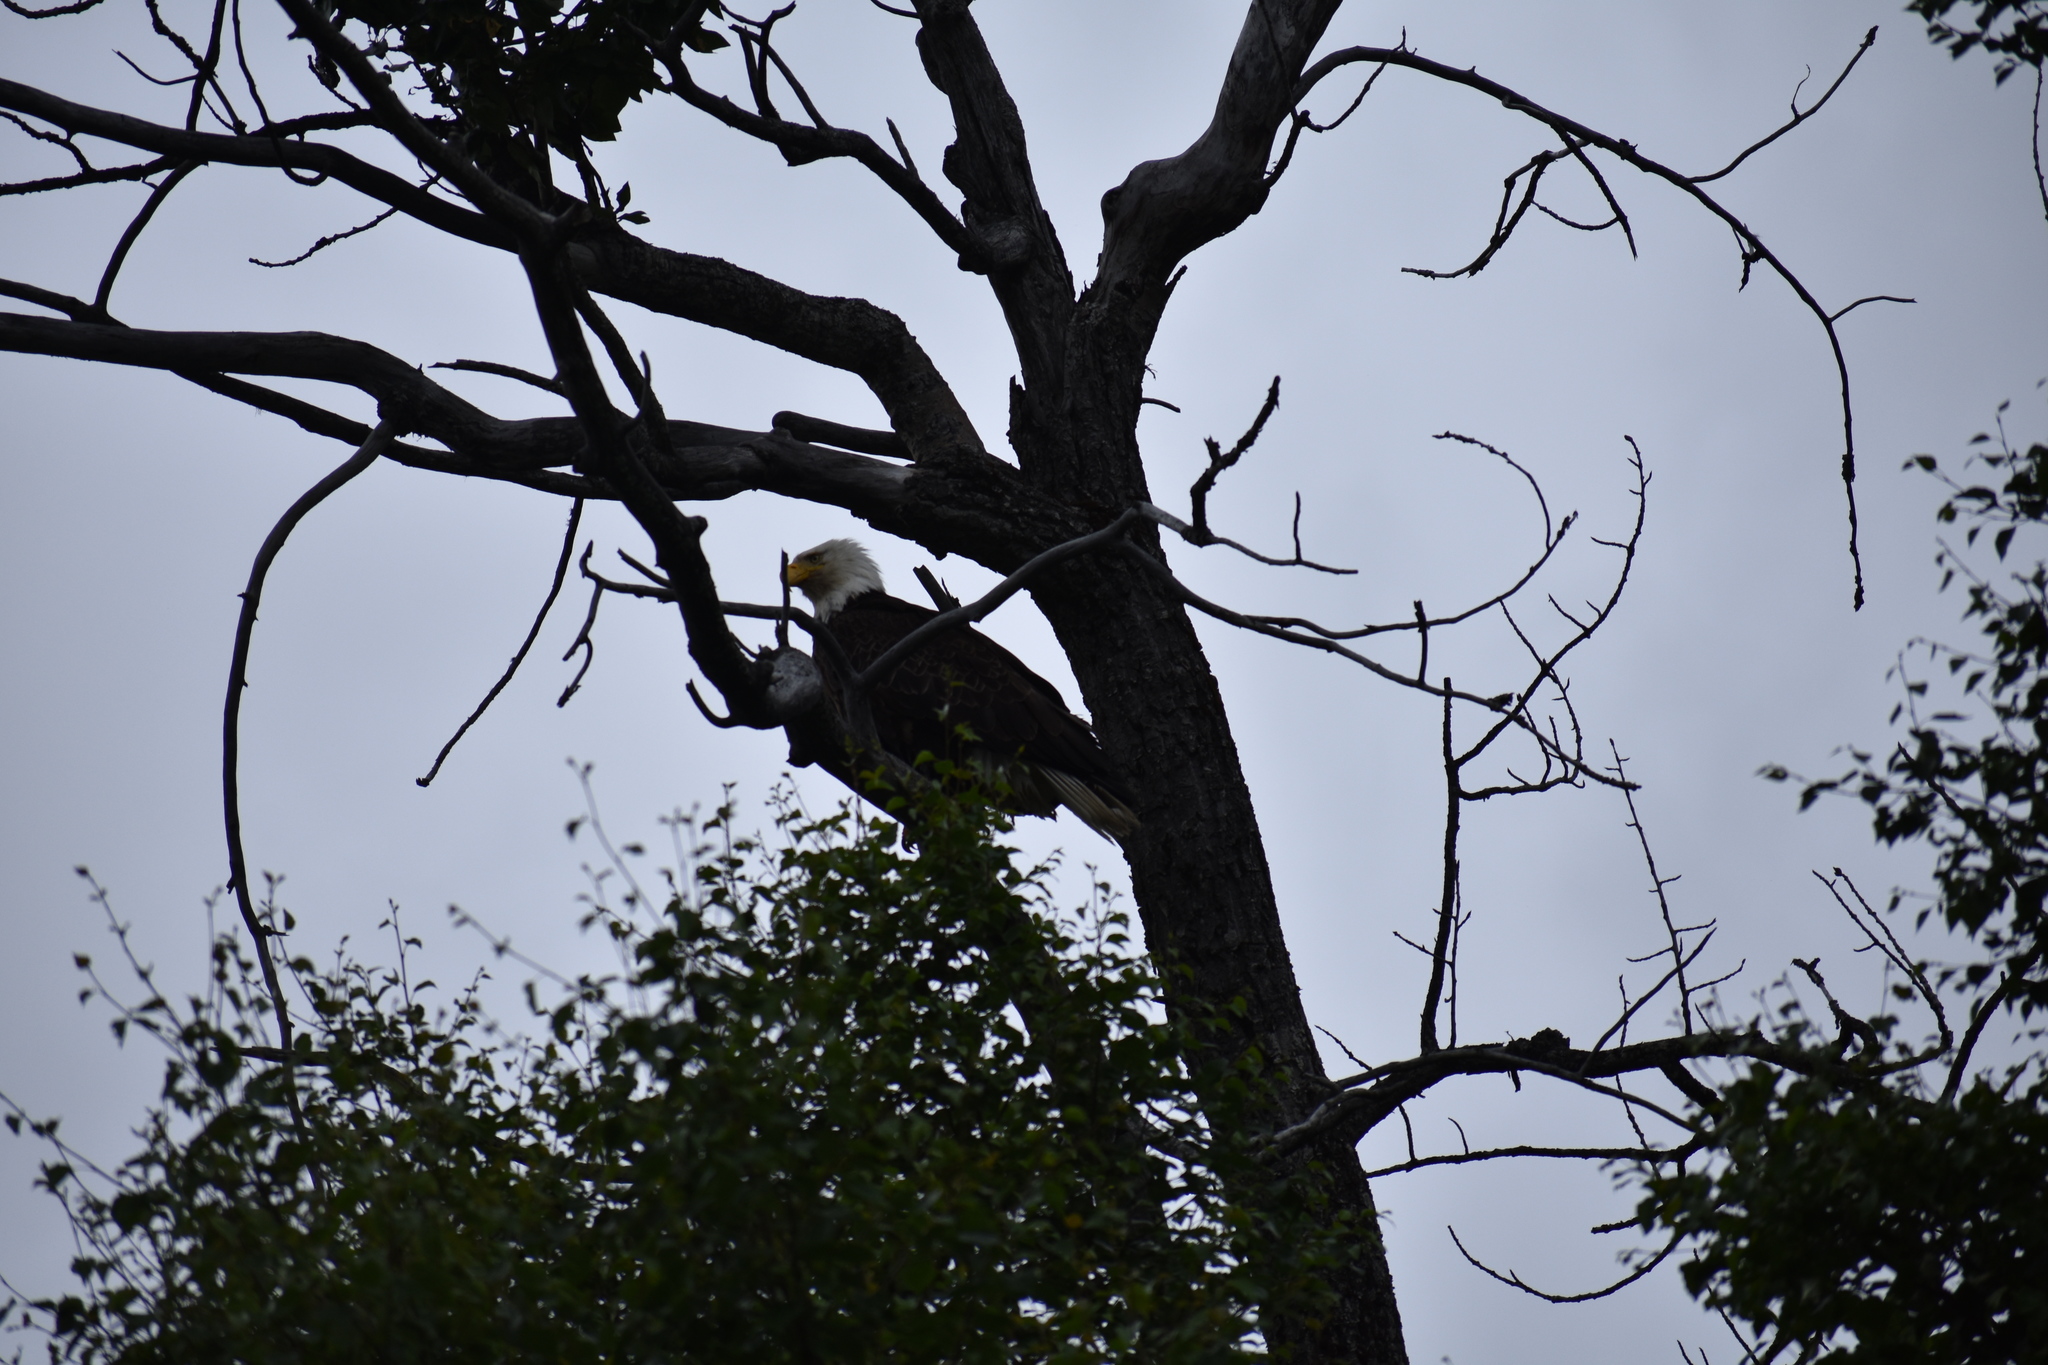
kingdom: Animalia
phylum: Chordata
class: Aves
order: Accipitriformes
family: Accipitridae
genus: Haliaeetus
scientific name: Haliaeetus leucocephalus
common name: Bald eagle
